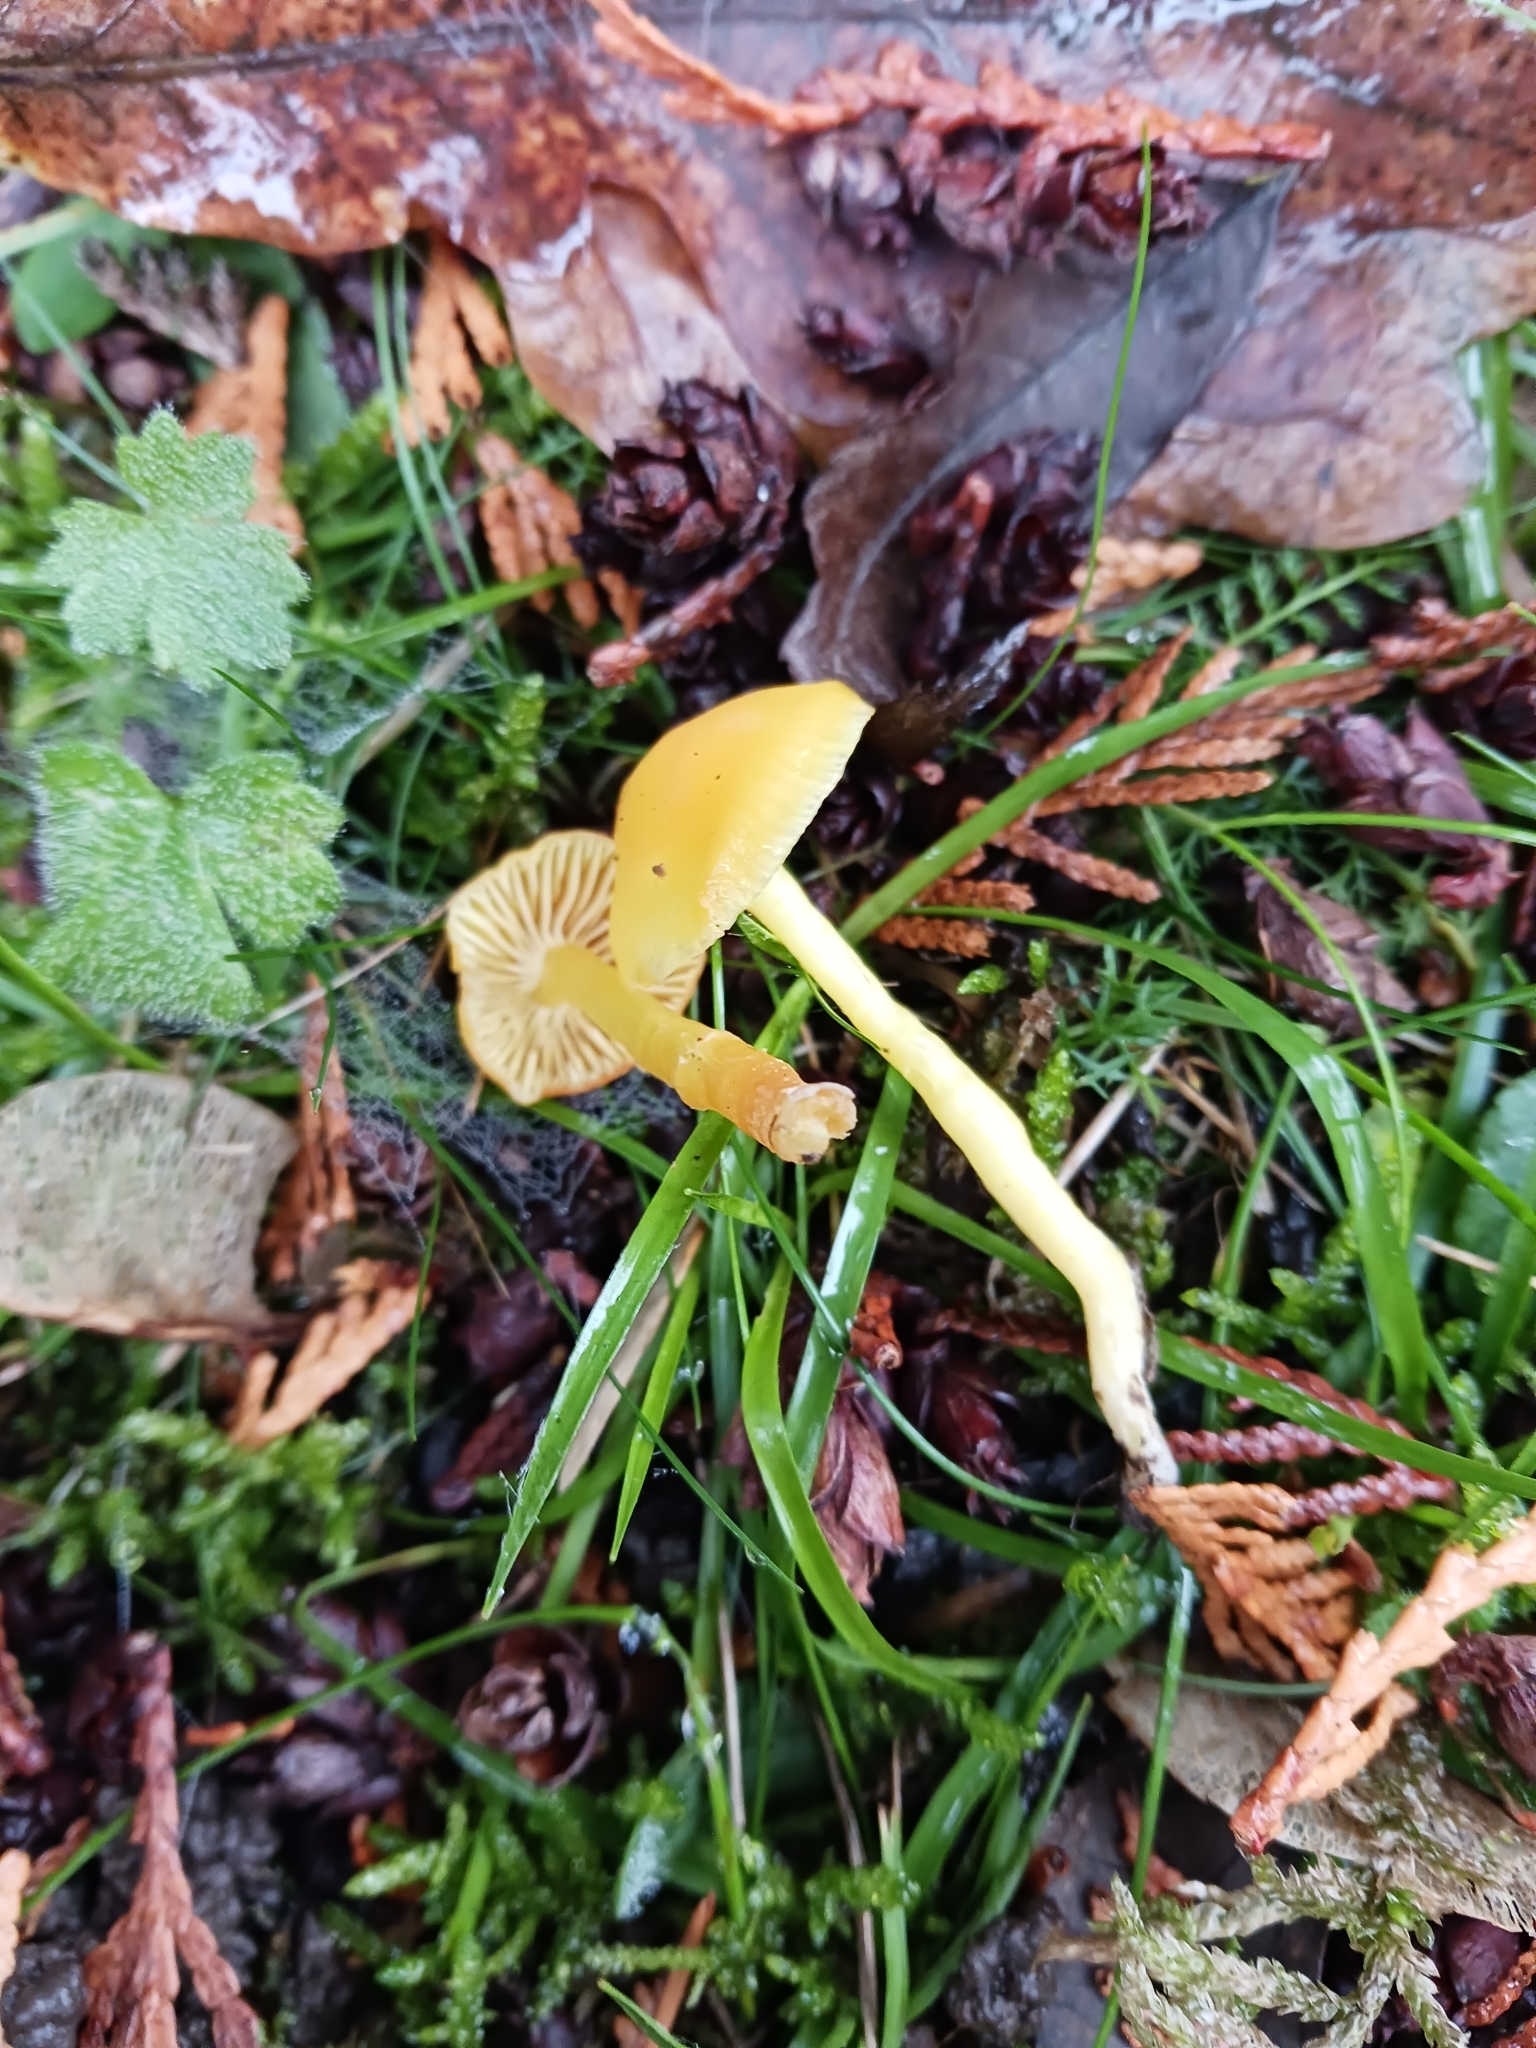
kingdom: Fungi
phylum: Basidiomycota
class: Agaricomycetes
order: Agaricales
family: Hygrophoraceae
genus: Hygrocybe
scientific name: Hygrocybe ceracea
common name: Butter waxcap
